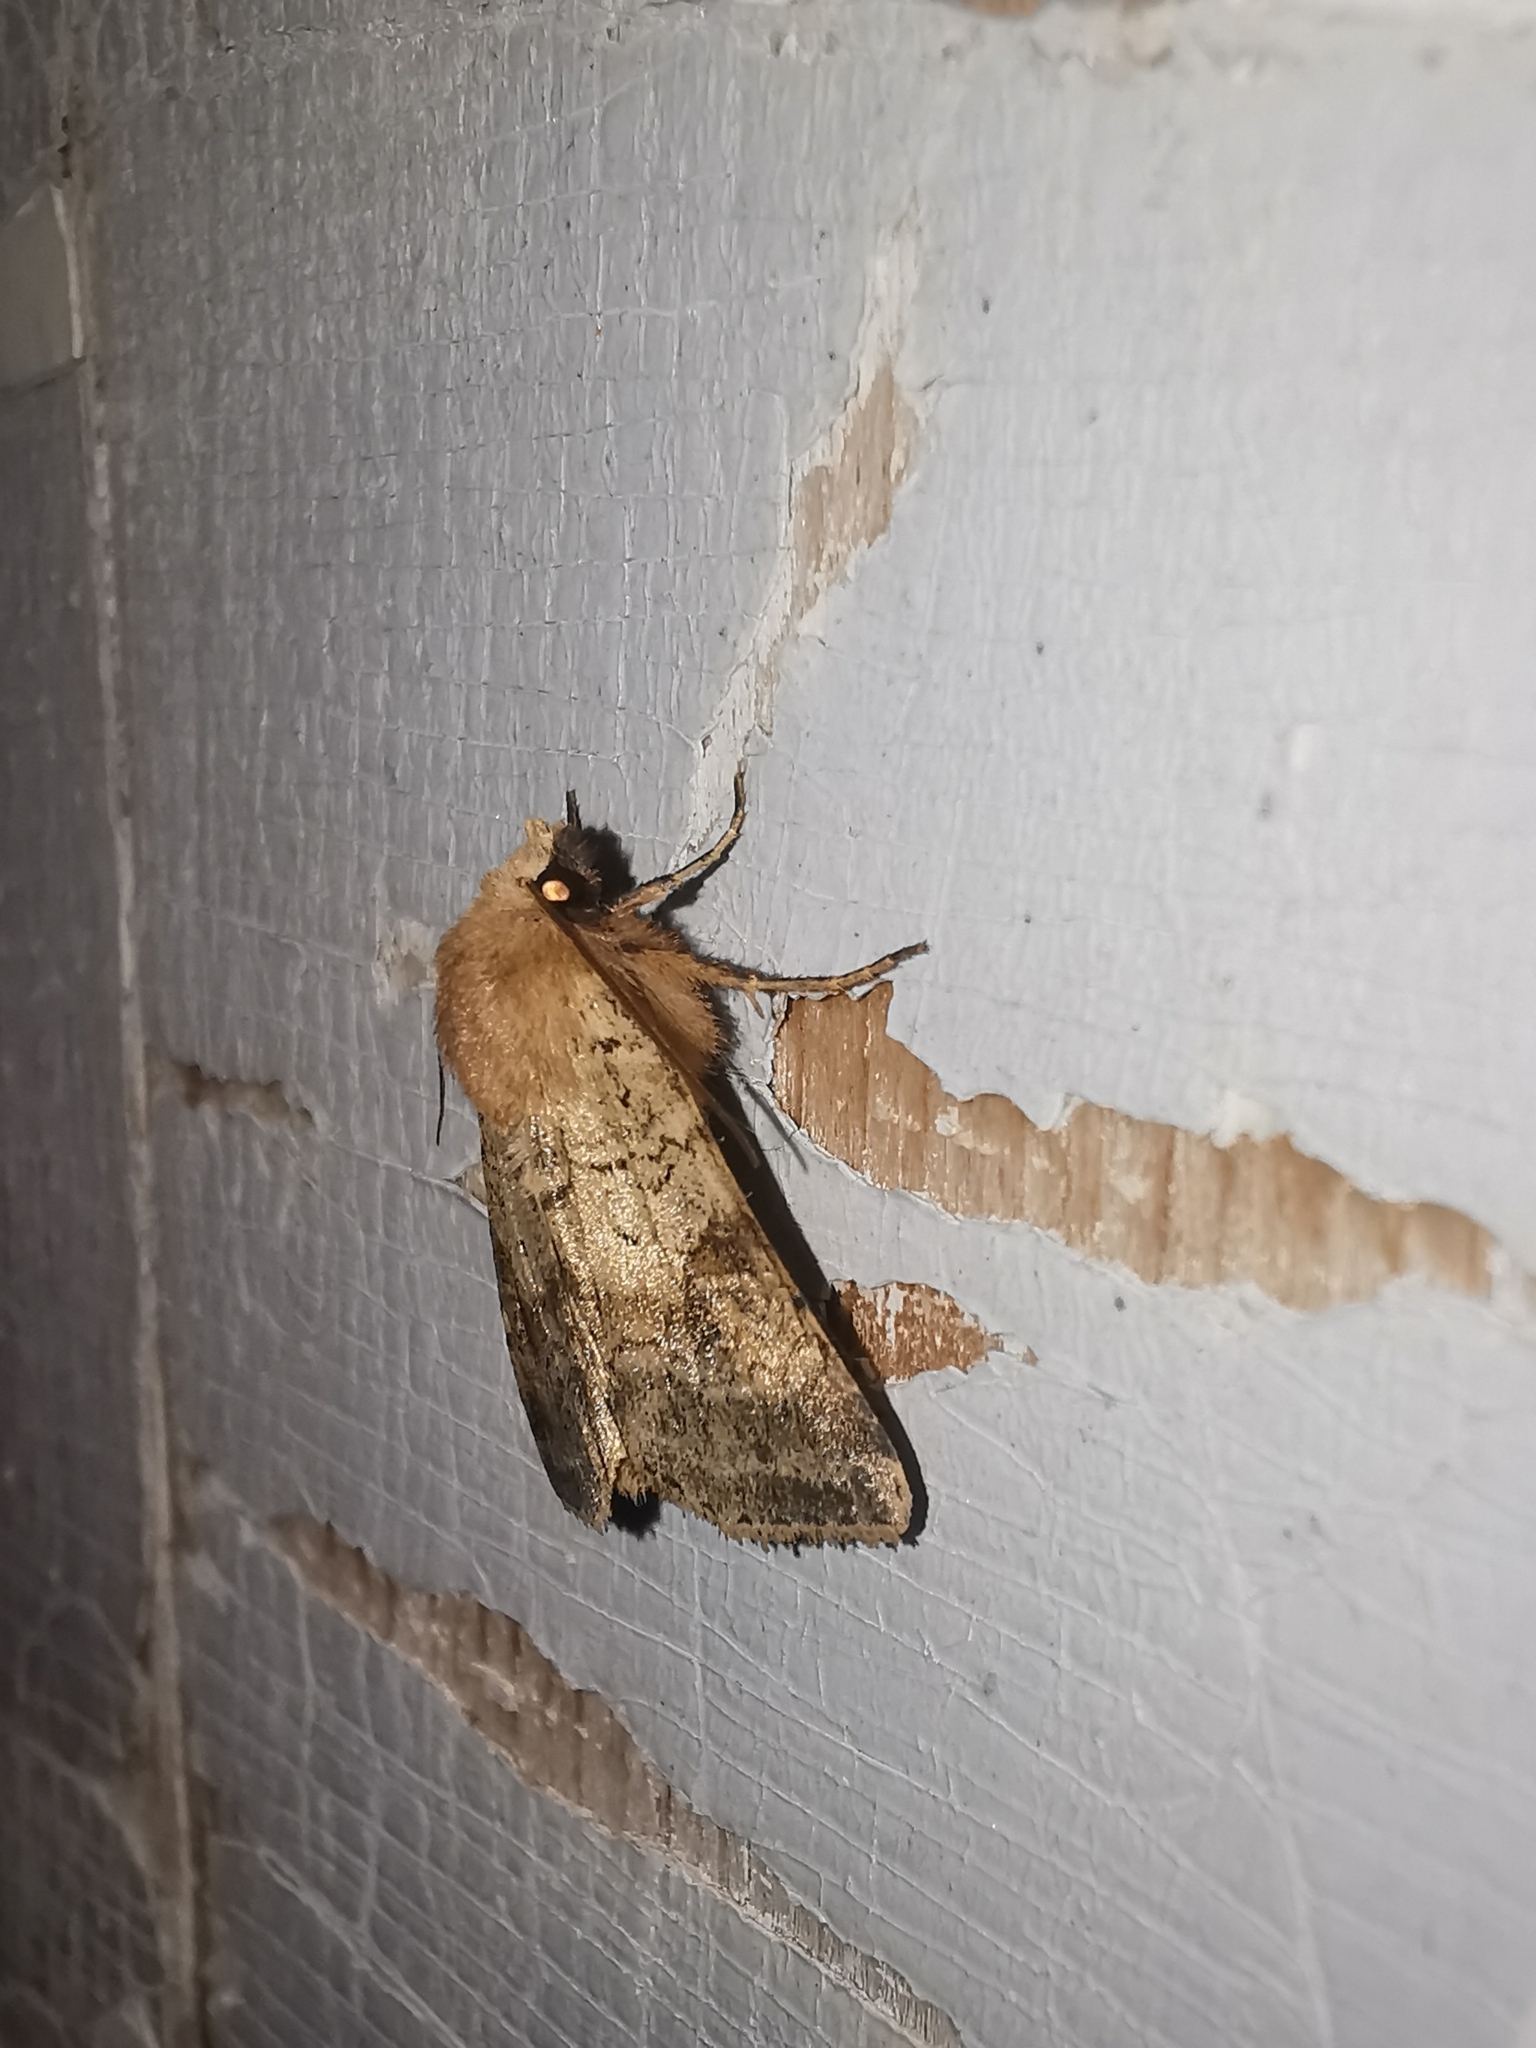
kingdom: Animalia
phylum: Arthropoda
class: Insecta
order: Lepidoptera
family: Noctuidae
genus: Diarsia
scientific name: Diarsia dahlii
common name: Barred chestnut
